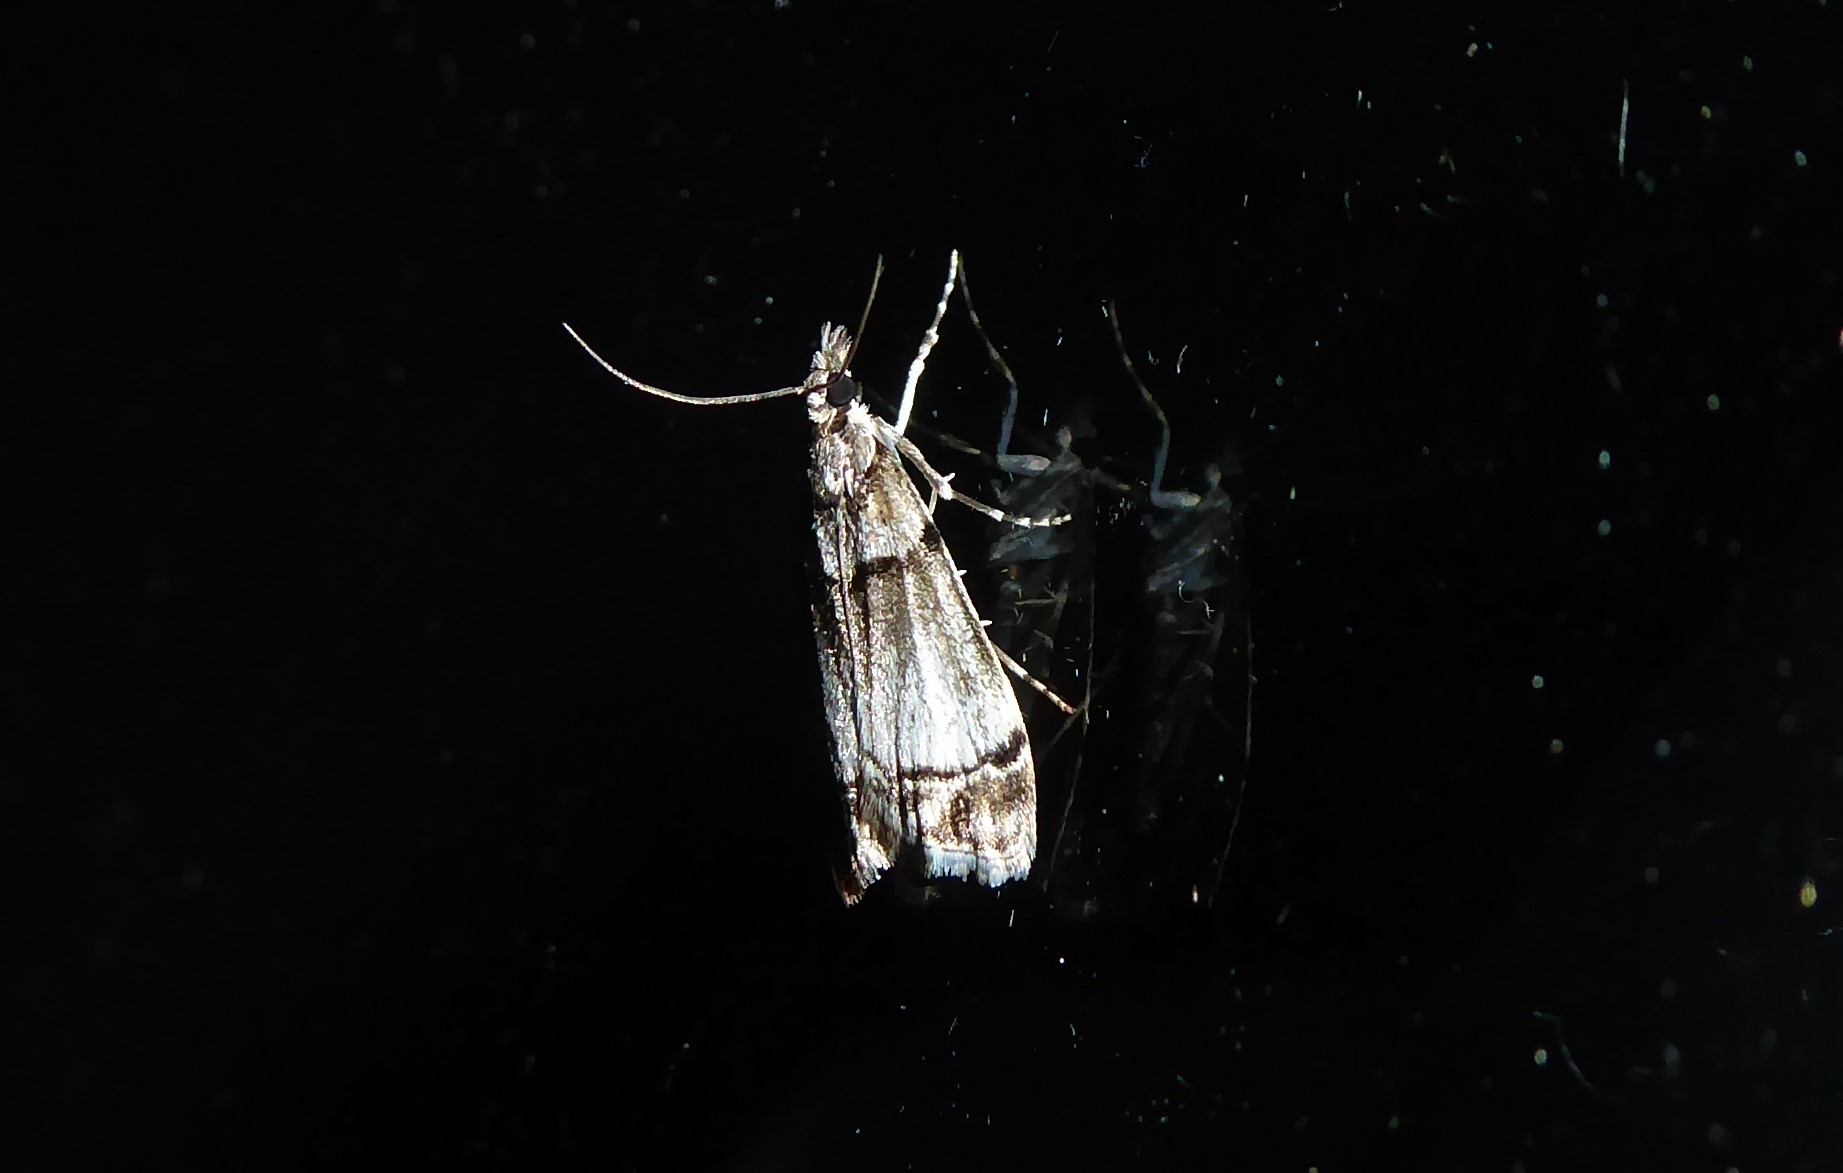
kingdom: Animalia
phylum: Arthropoda
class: Insecta
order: Lepidoptera
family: Crambidae
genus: Eudonia
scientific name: Eudonia choristis
